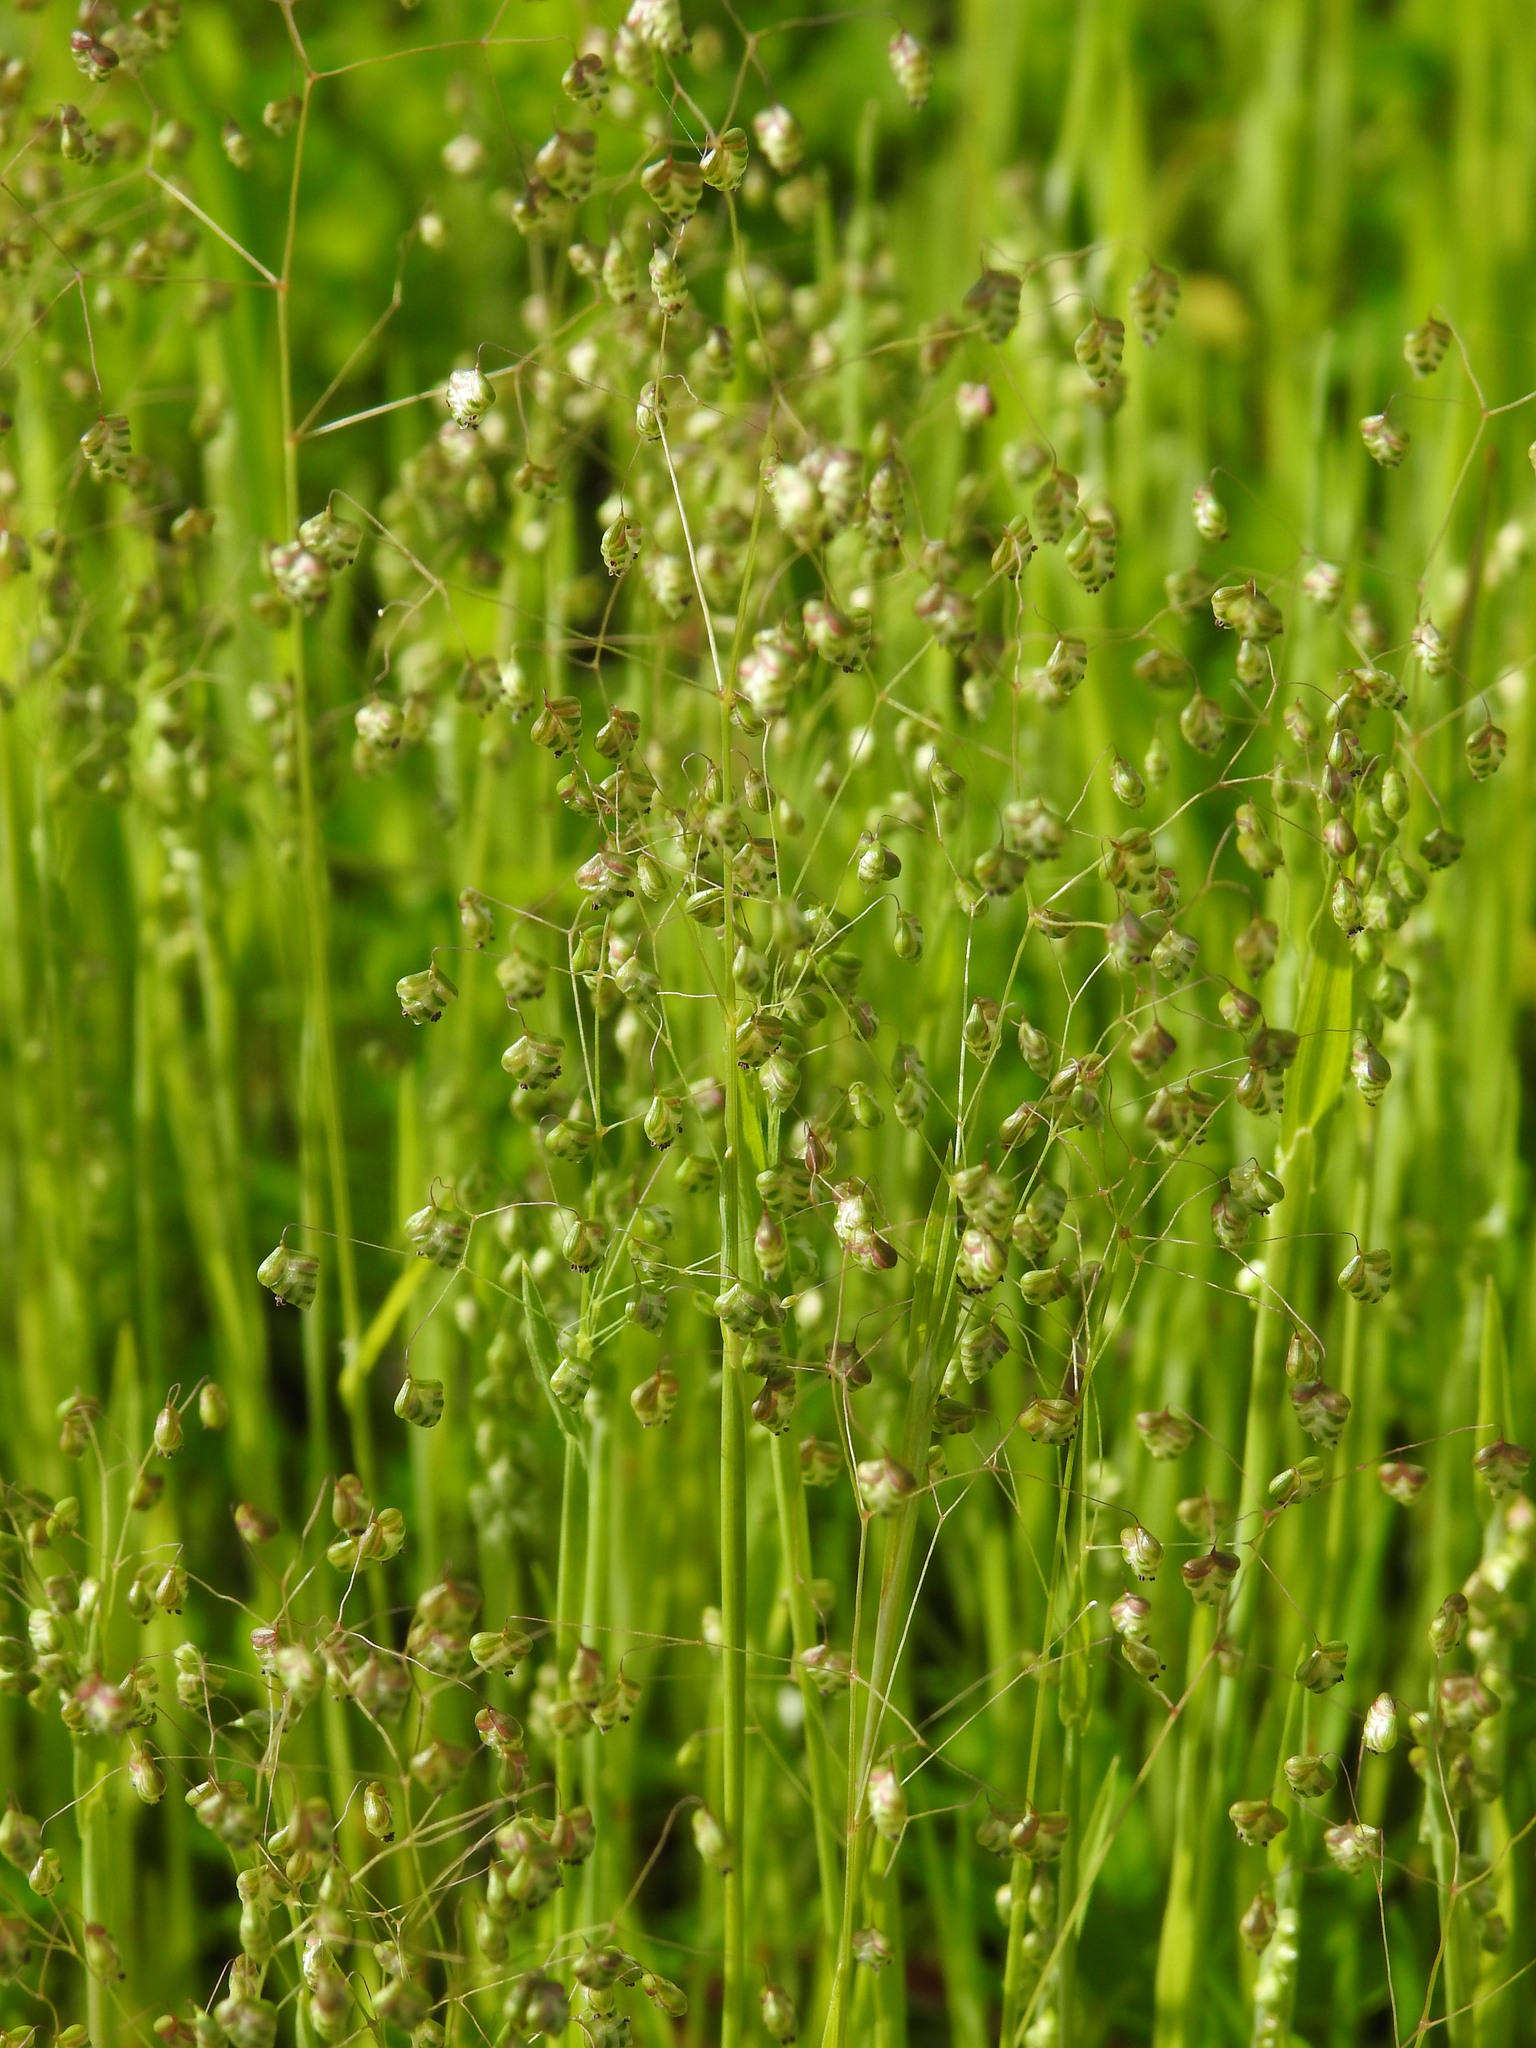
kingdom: Plantae
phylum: Tracheophyta
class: Liliopsida
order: Poales
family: Poaceae
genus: Briza
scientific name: Briza minor
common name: Lesser quaking-grass
